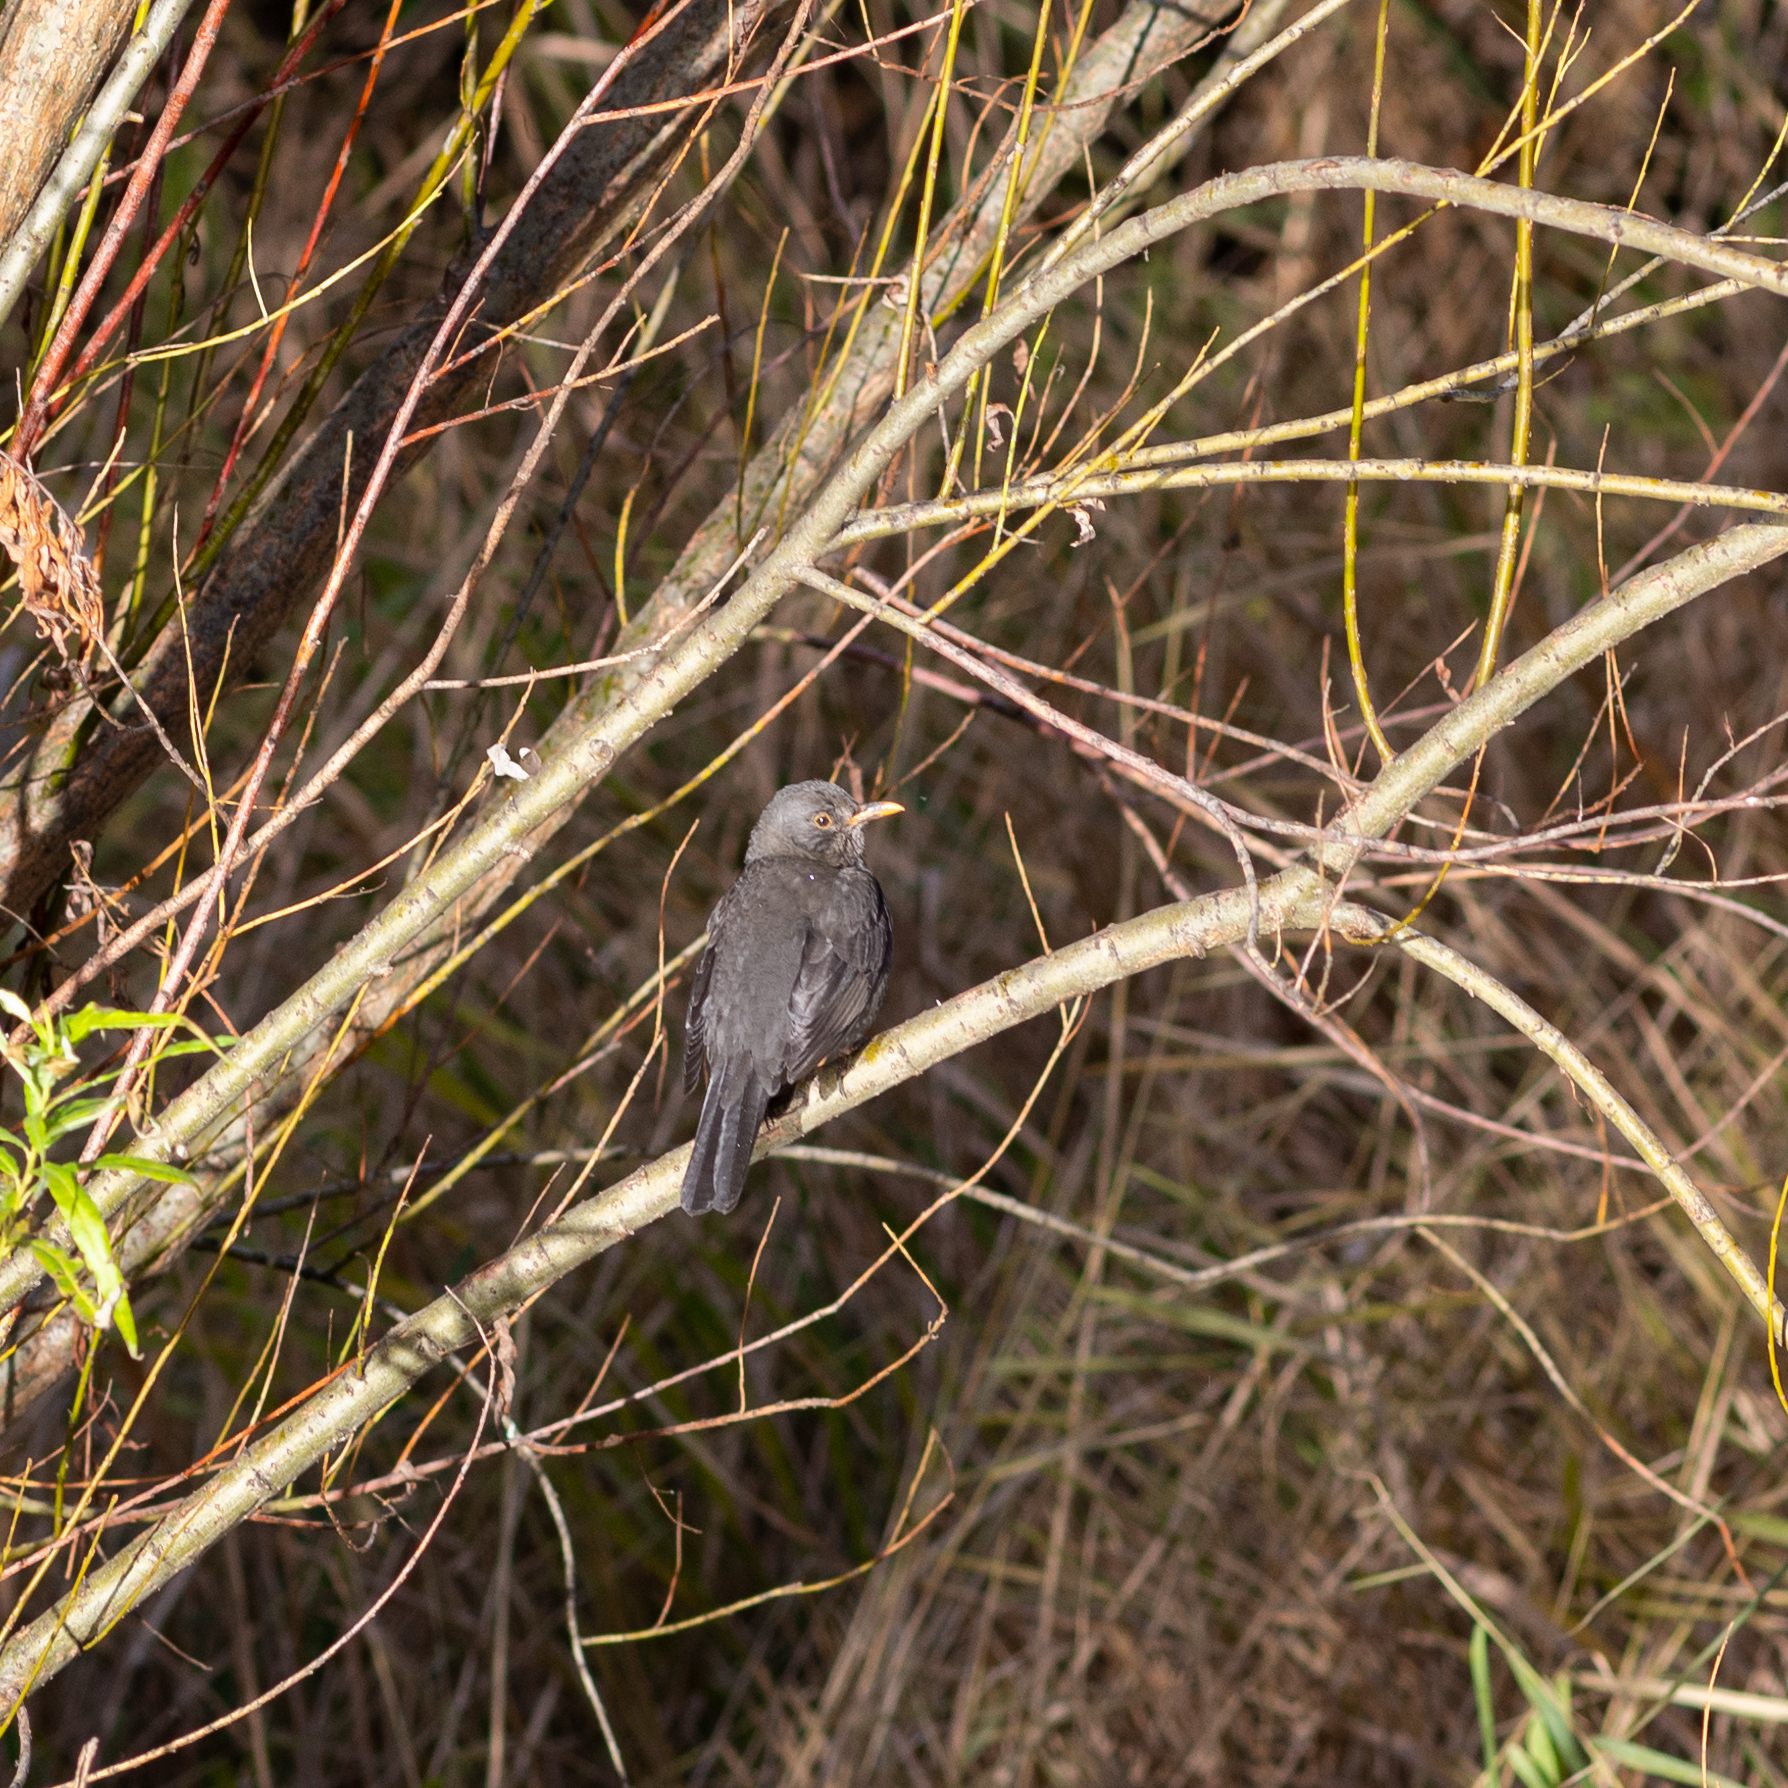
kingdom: Animalia
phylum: Chordata
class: Aves
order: Passeriformes
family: Turdidae
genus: Turdus
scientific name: Turdus merula
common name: Common blackbird
